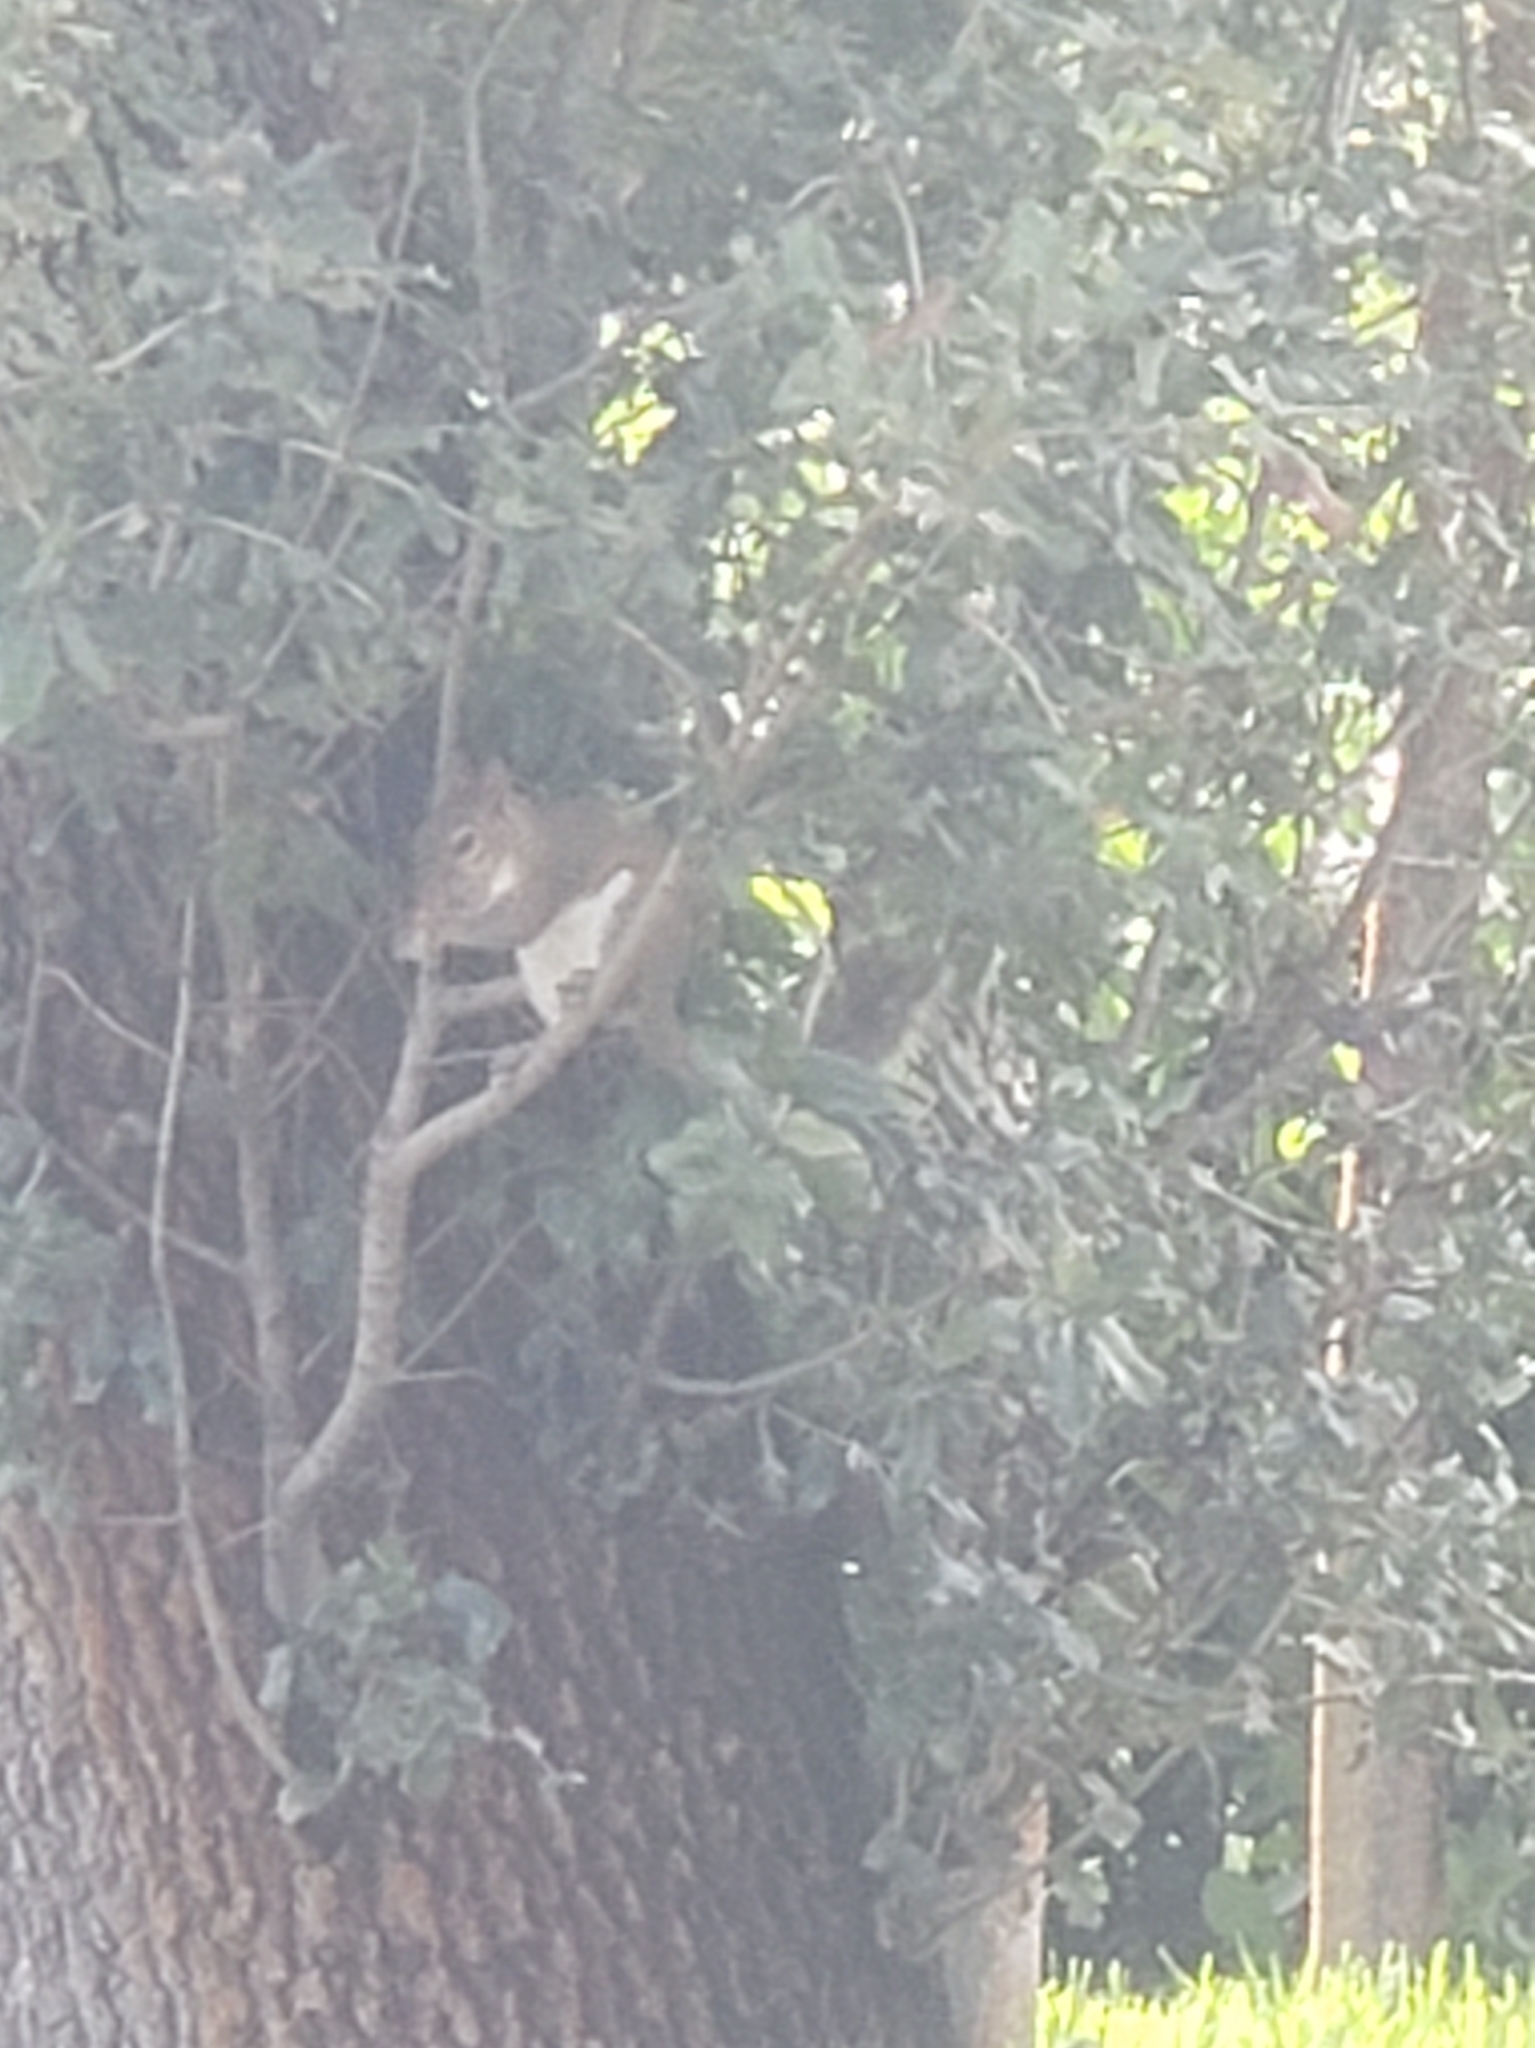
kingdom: Animalia
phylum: Chordata
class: Mammalia
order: Rodentia
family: Sciuridae
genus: Sciurus
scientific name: Sciurus carolinensis
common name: Eastern gray squirrel
